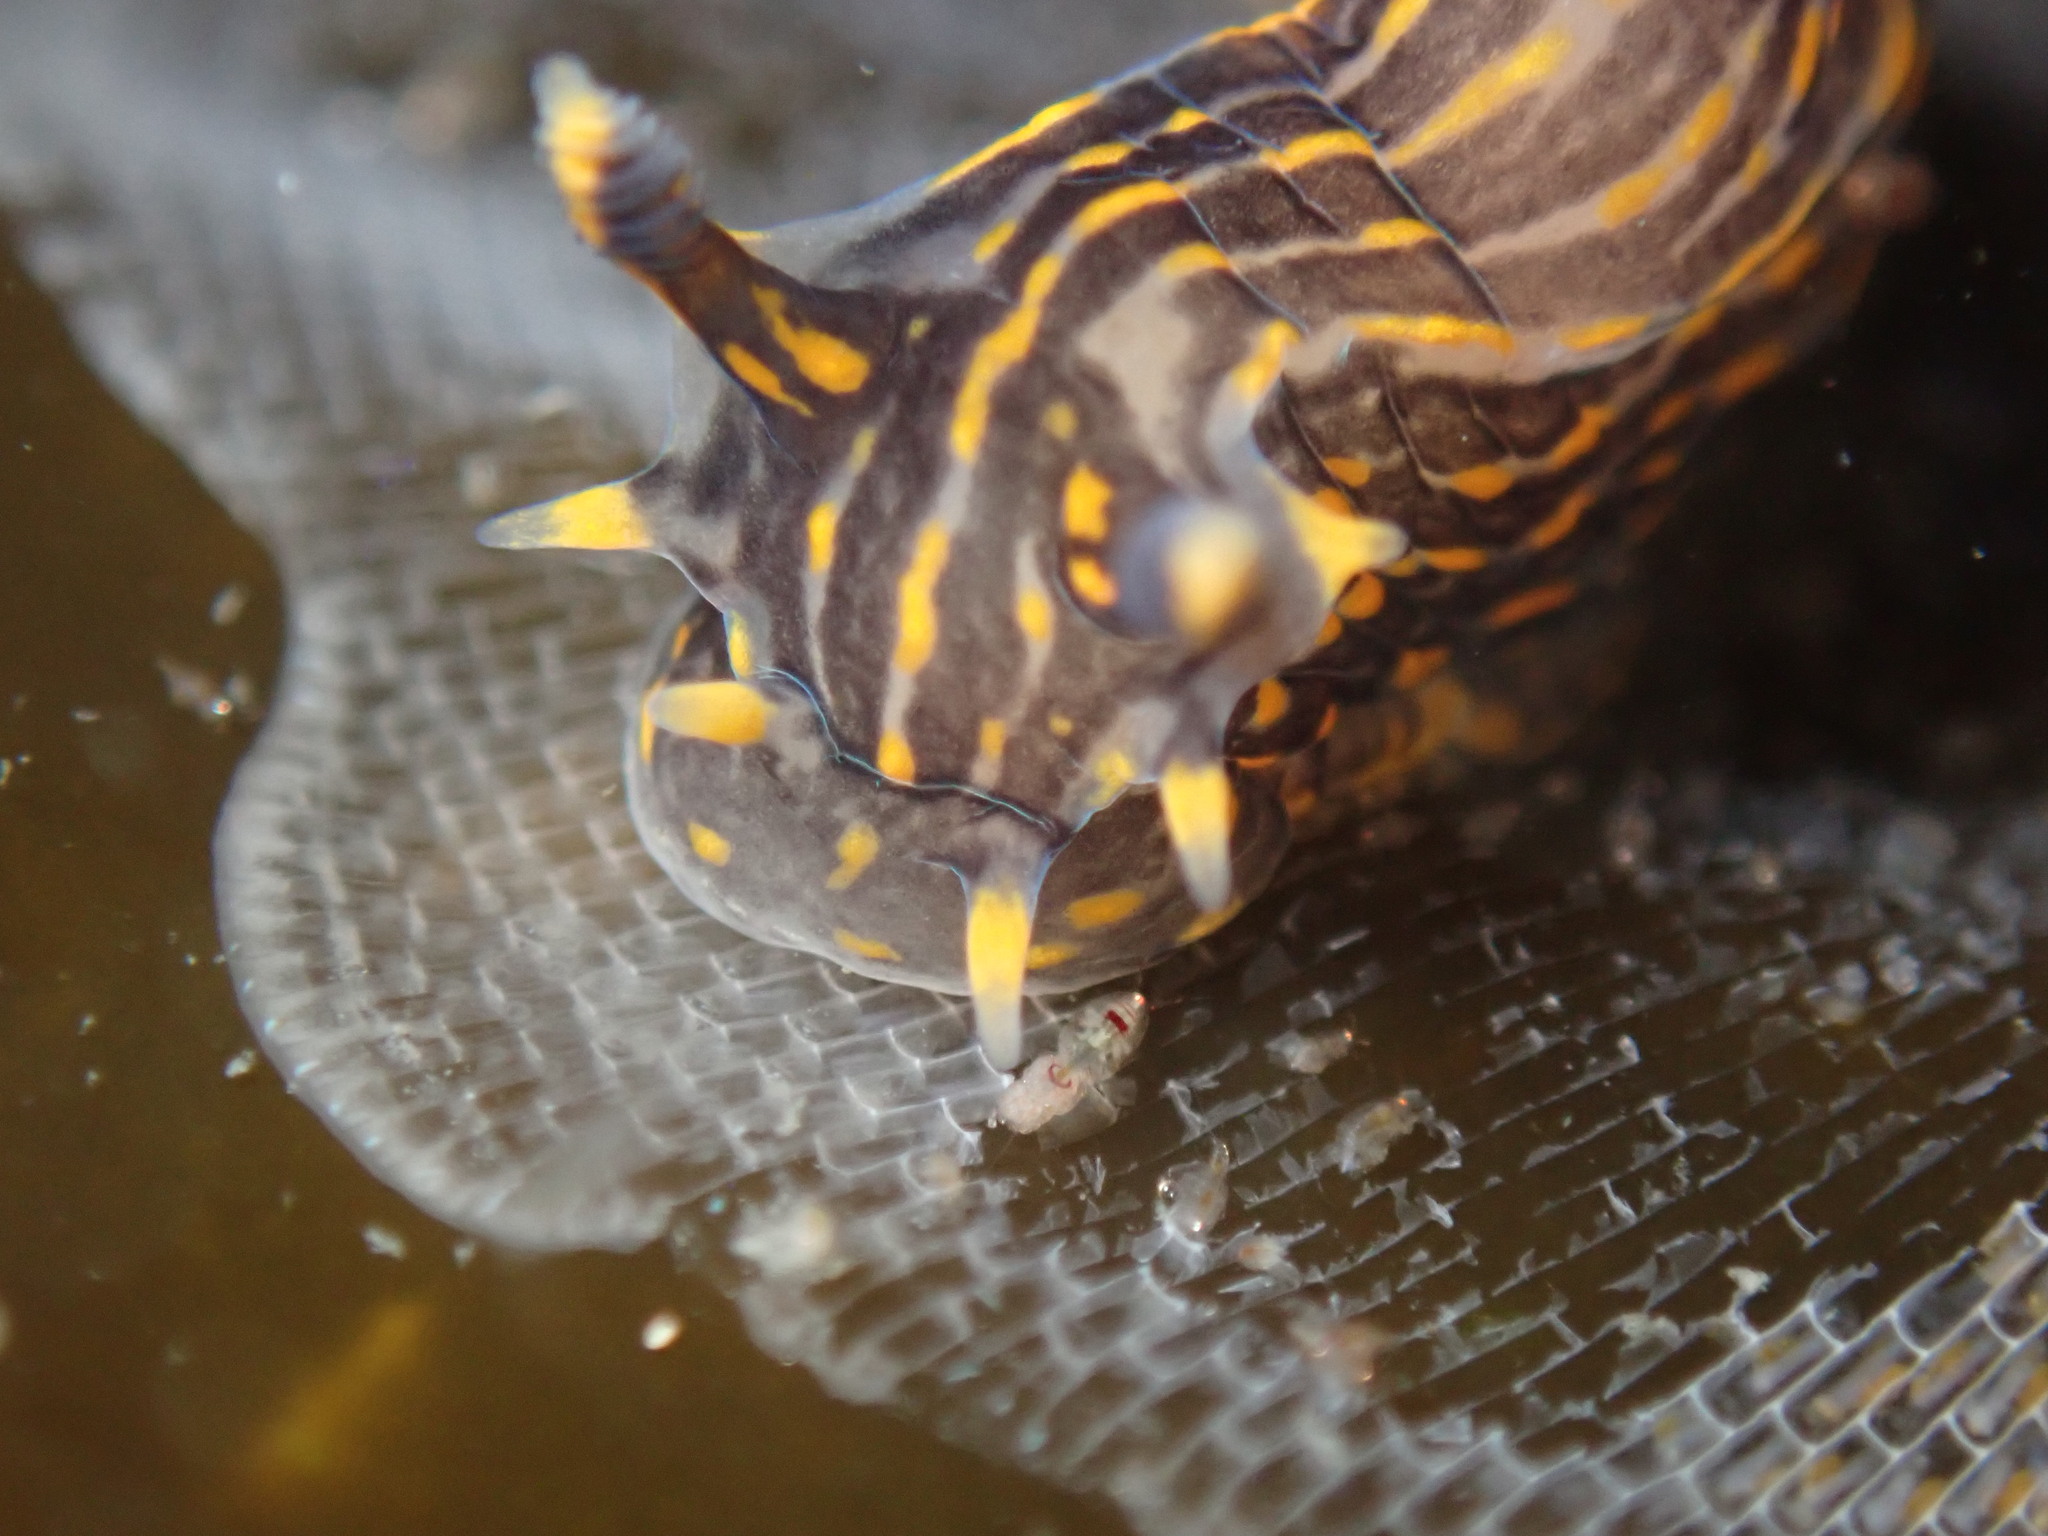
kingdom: Animalia
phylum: Mollusca
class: Gastropoda
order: Nudibranchia
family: Polyceridae
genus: Polycera
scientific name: Polycera atra
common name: Orange-spike polycera
